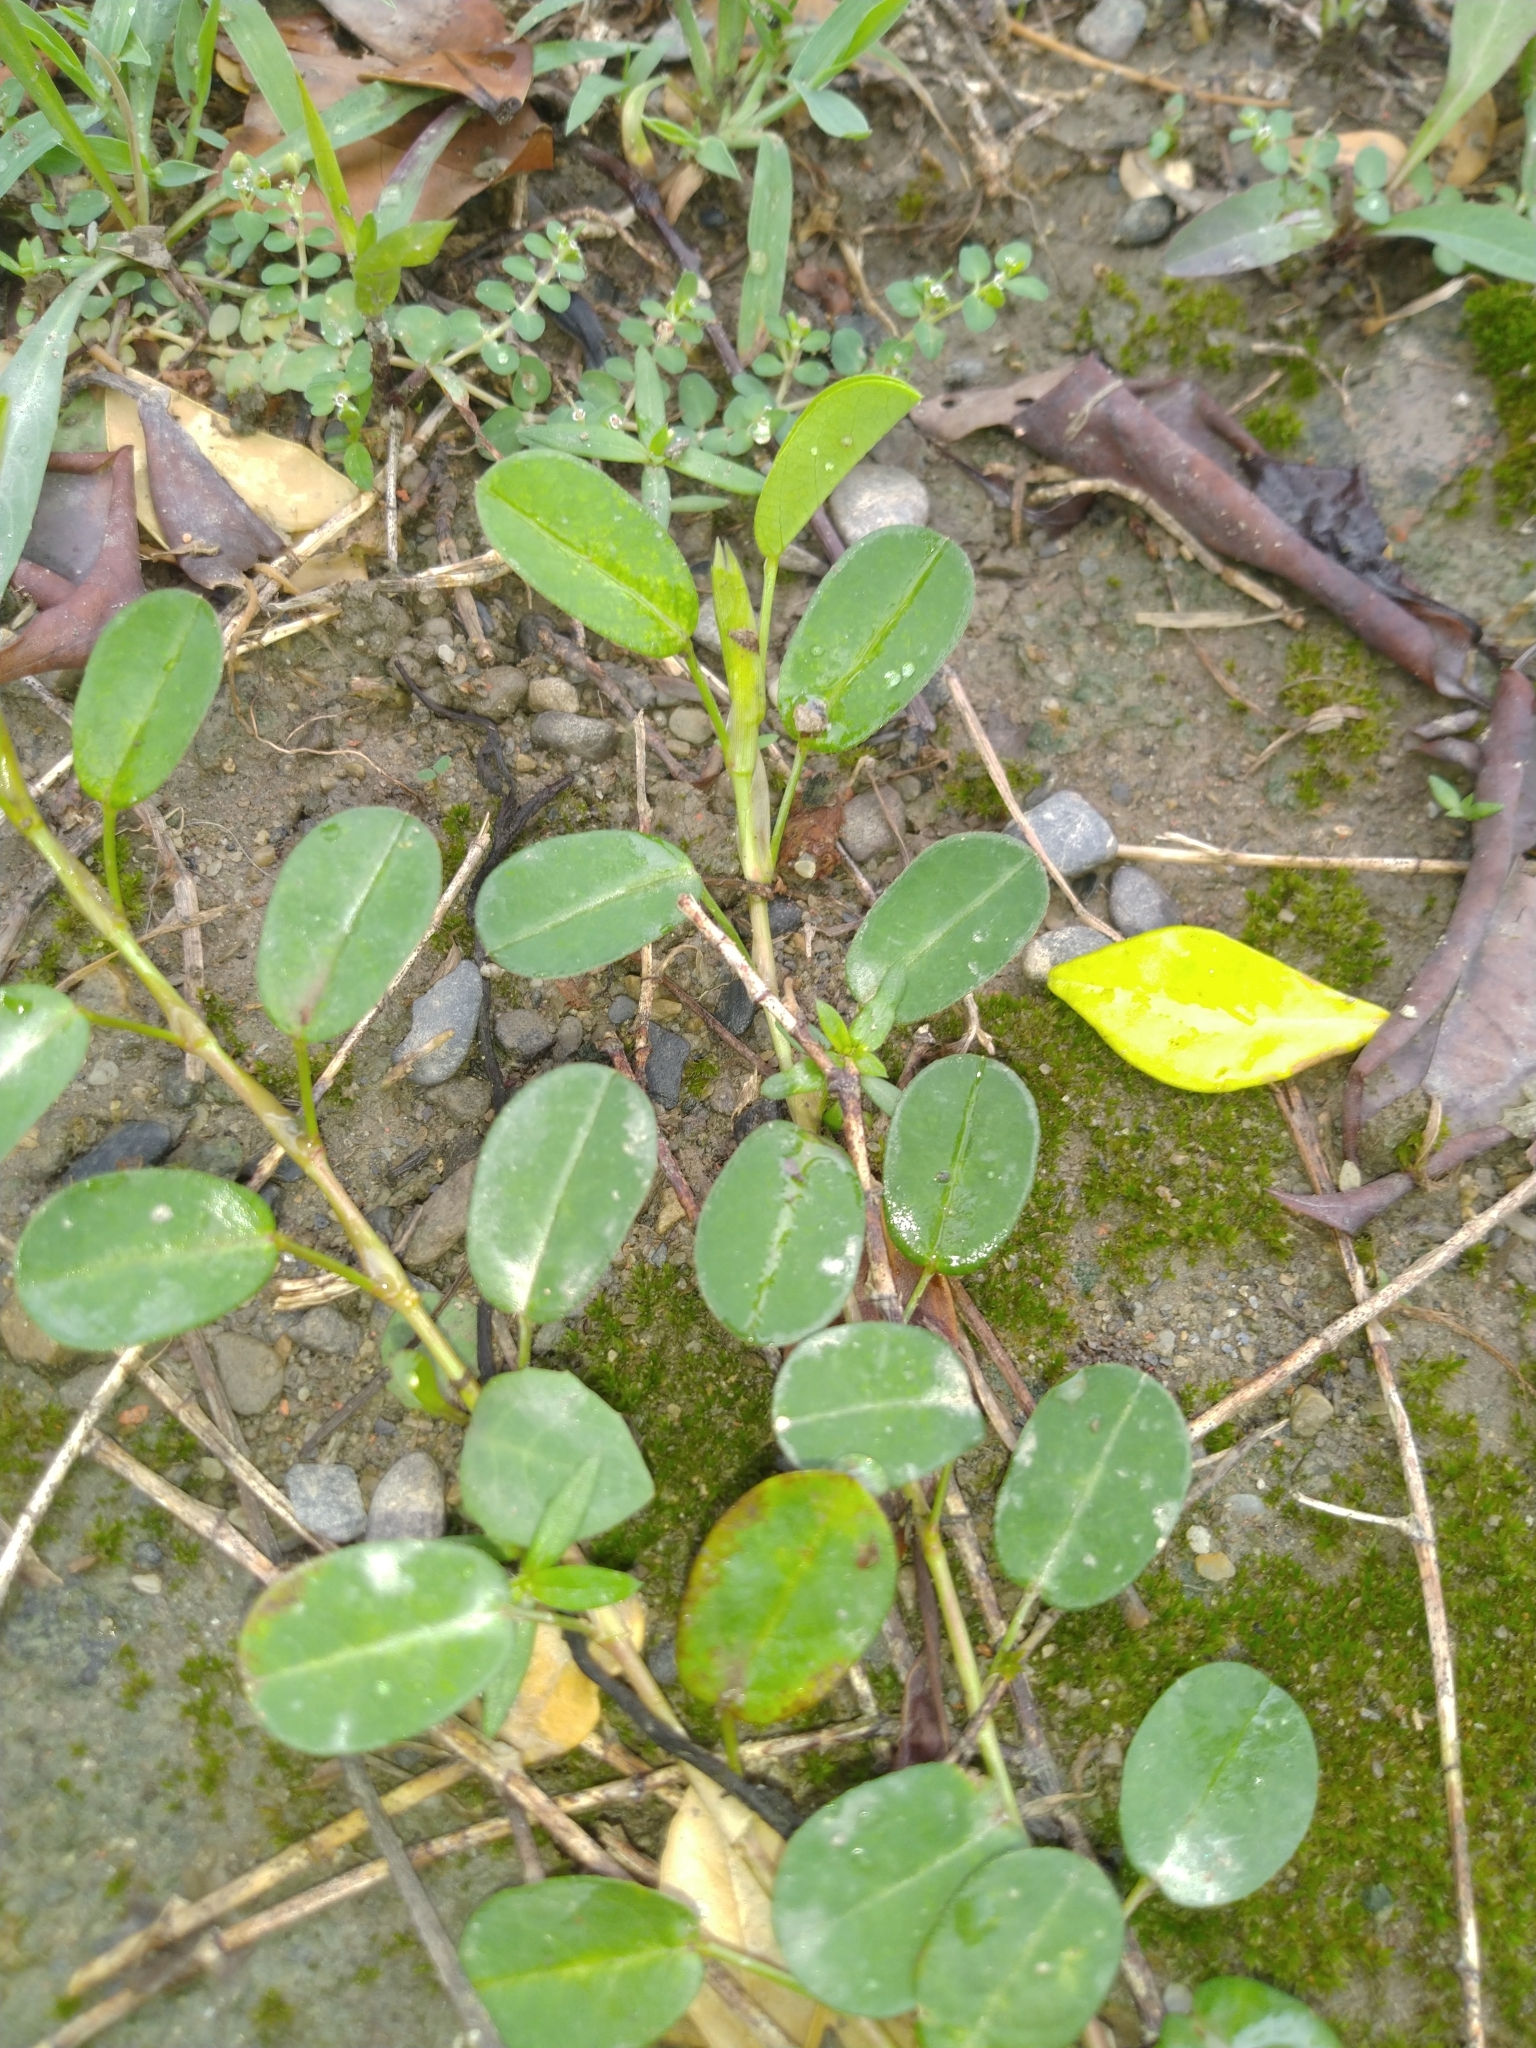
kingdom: Plantae
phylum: Tracheophyta
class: Magnoliopsida
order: Fabales
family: Fabaceae
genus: Alysicarpus
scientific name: Alysicarpus vaginalis
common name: White moneywort
